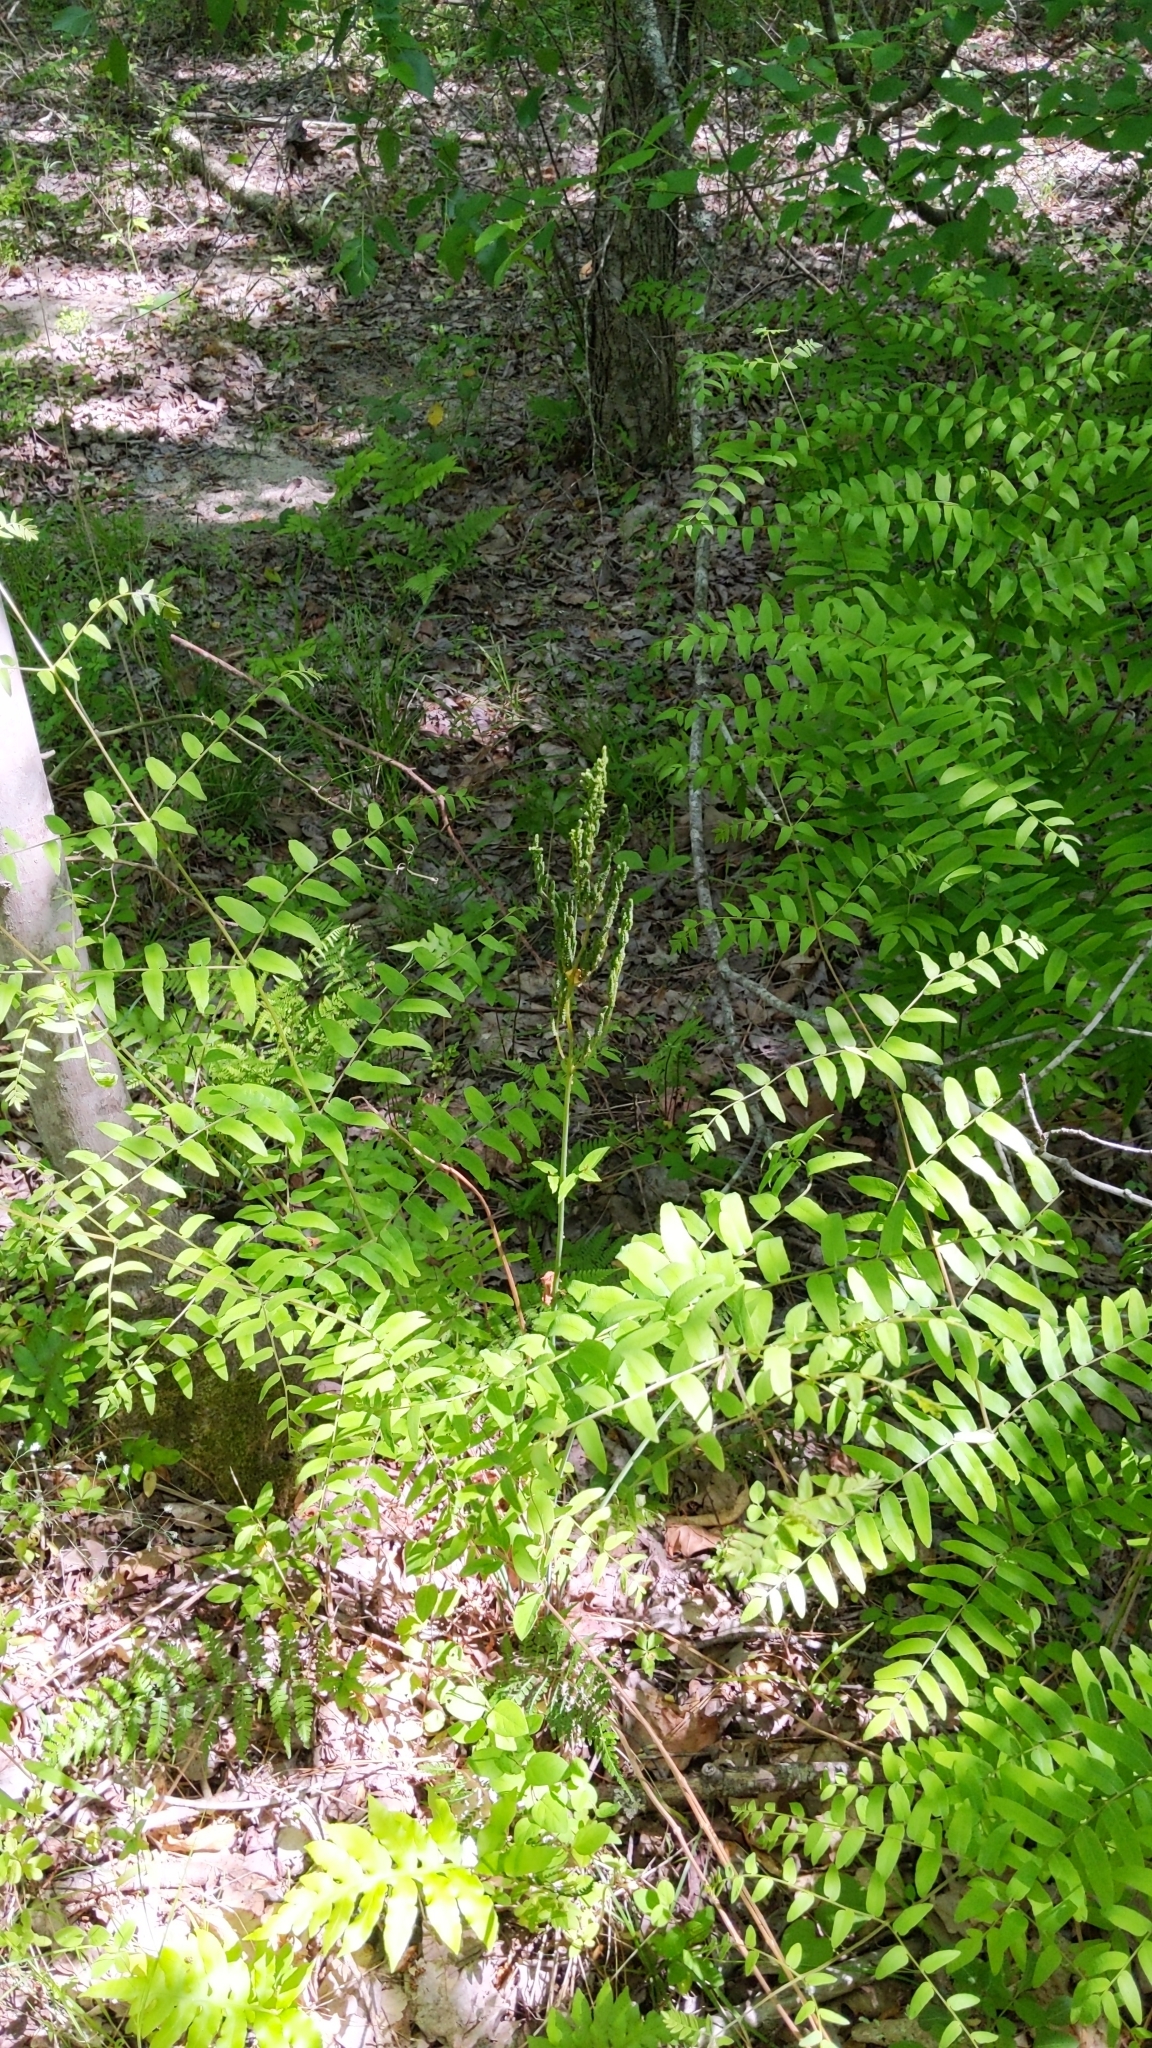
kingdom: Plantae
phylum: Tracheophyta
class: Polypodiopsida
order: Osmundales
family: Osmundaceae
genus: Osmunda
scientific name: Osmunda spectabilis
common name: American royal fern
